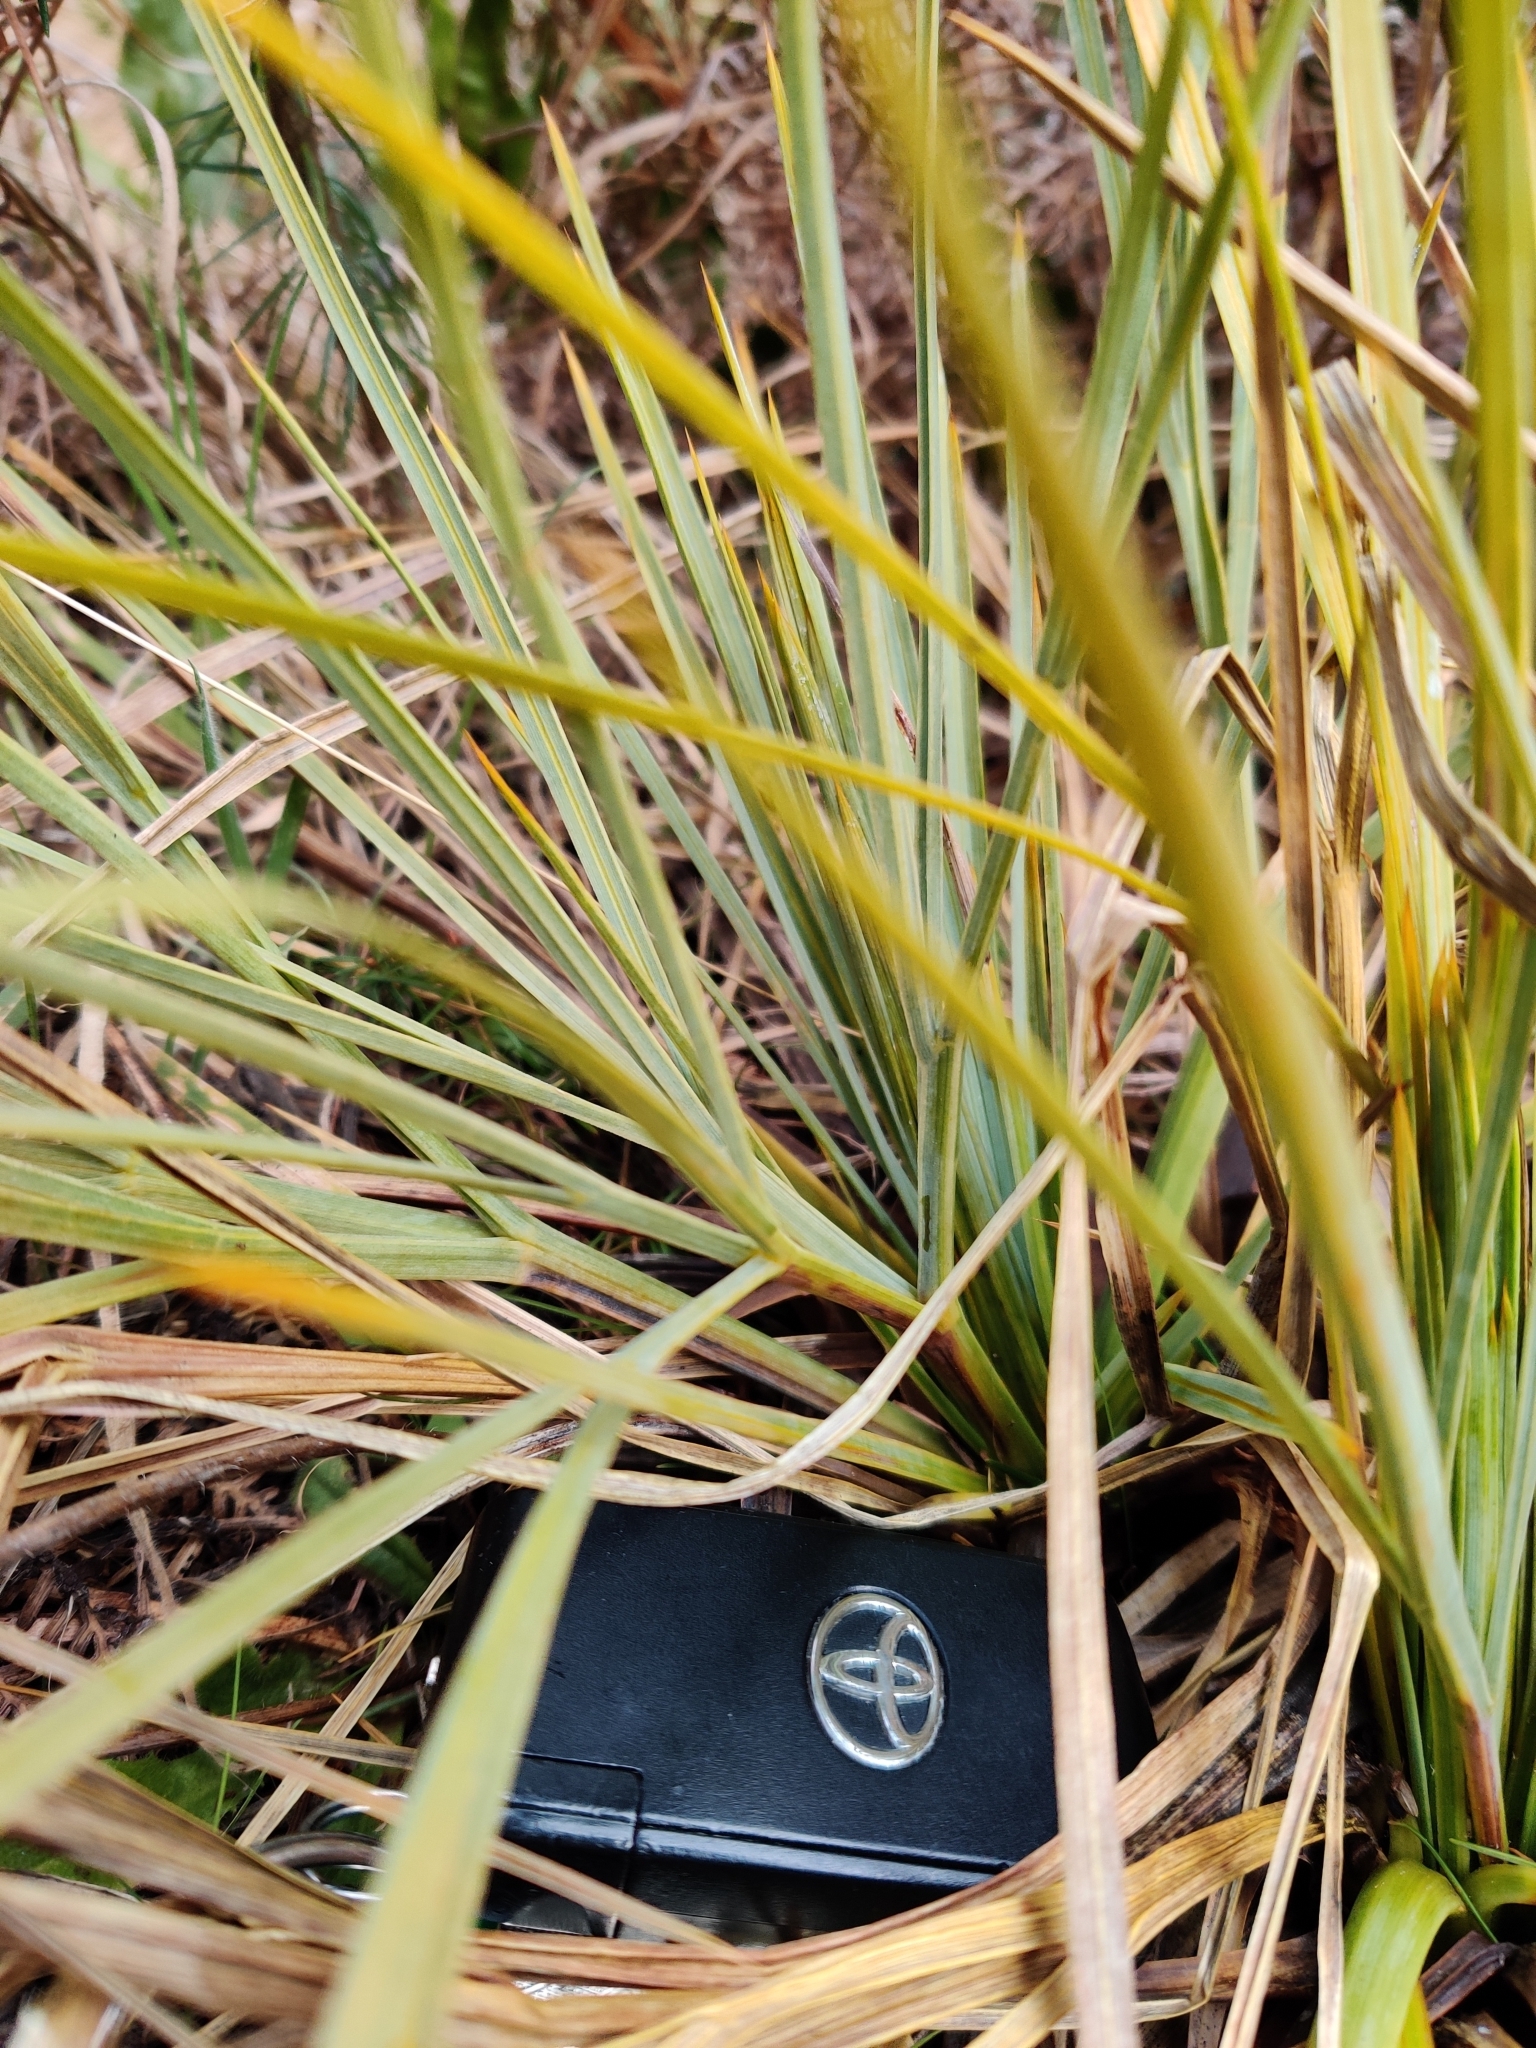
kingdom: Plantae
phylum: Tracheophyta
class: Magnoliopsida
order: Apiales
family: Apiaceae
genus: Aciphylla
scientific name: Aciphylla glaucescens
